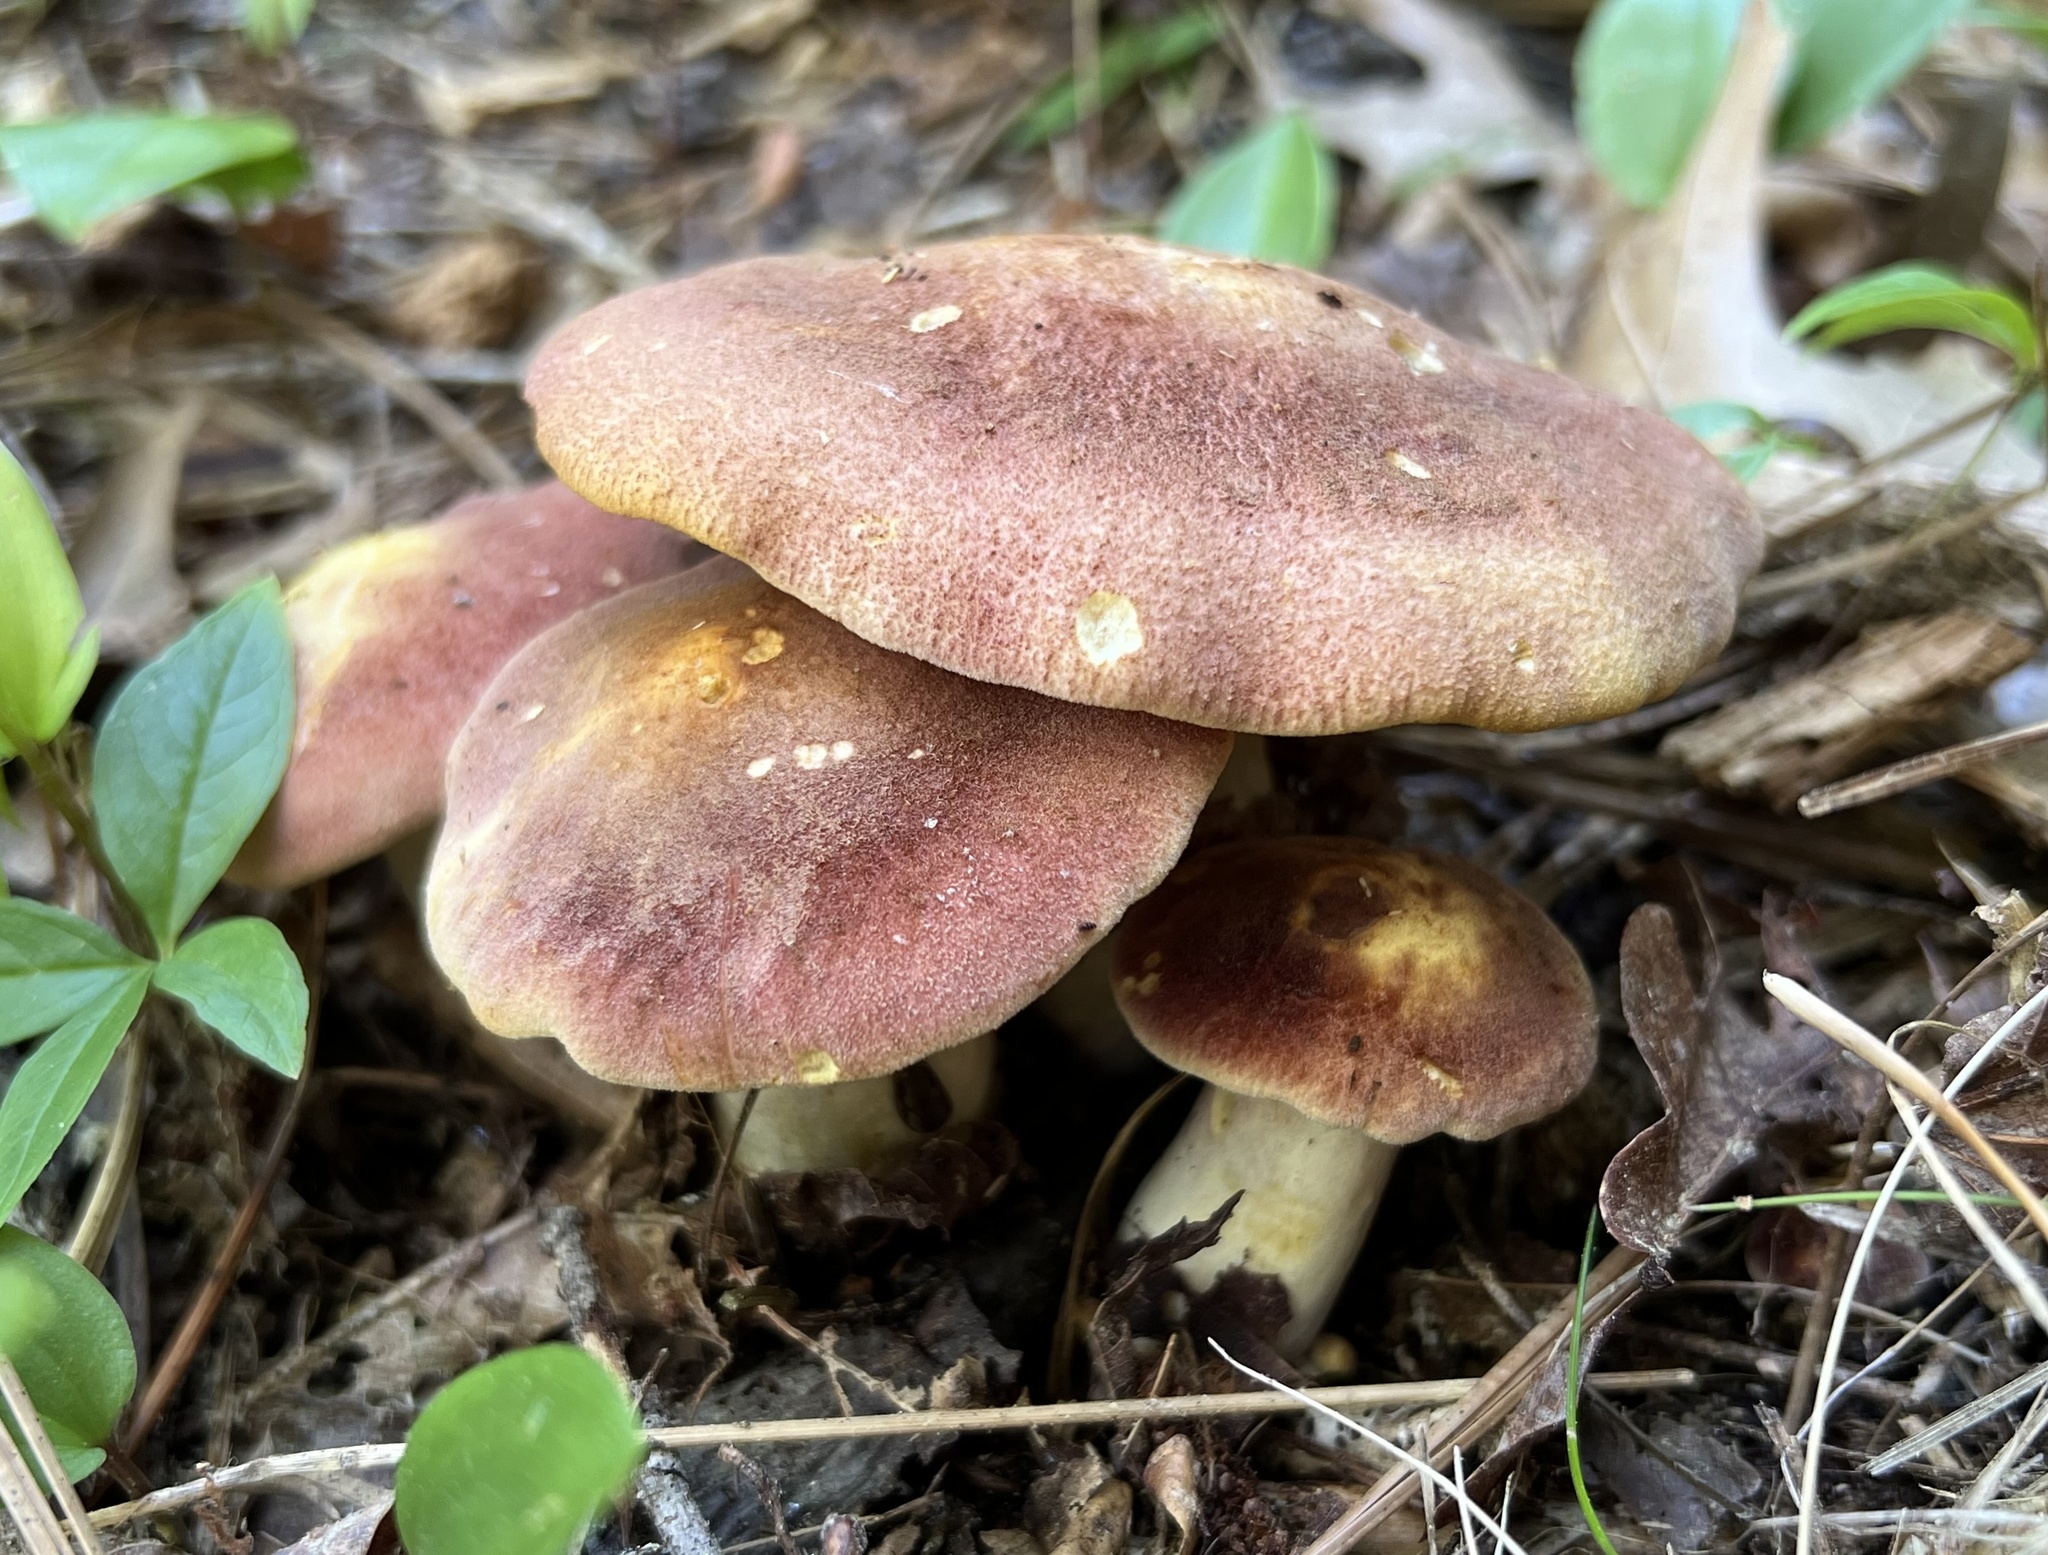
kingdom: Fungi
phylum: Basidiomycota
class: Agaricomycetes
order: Agaricales
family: Tricholomataceae
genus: Tricholomopsis
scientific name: Tricholomopsis rutilans
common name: Plums and custard
